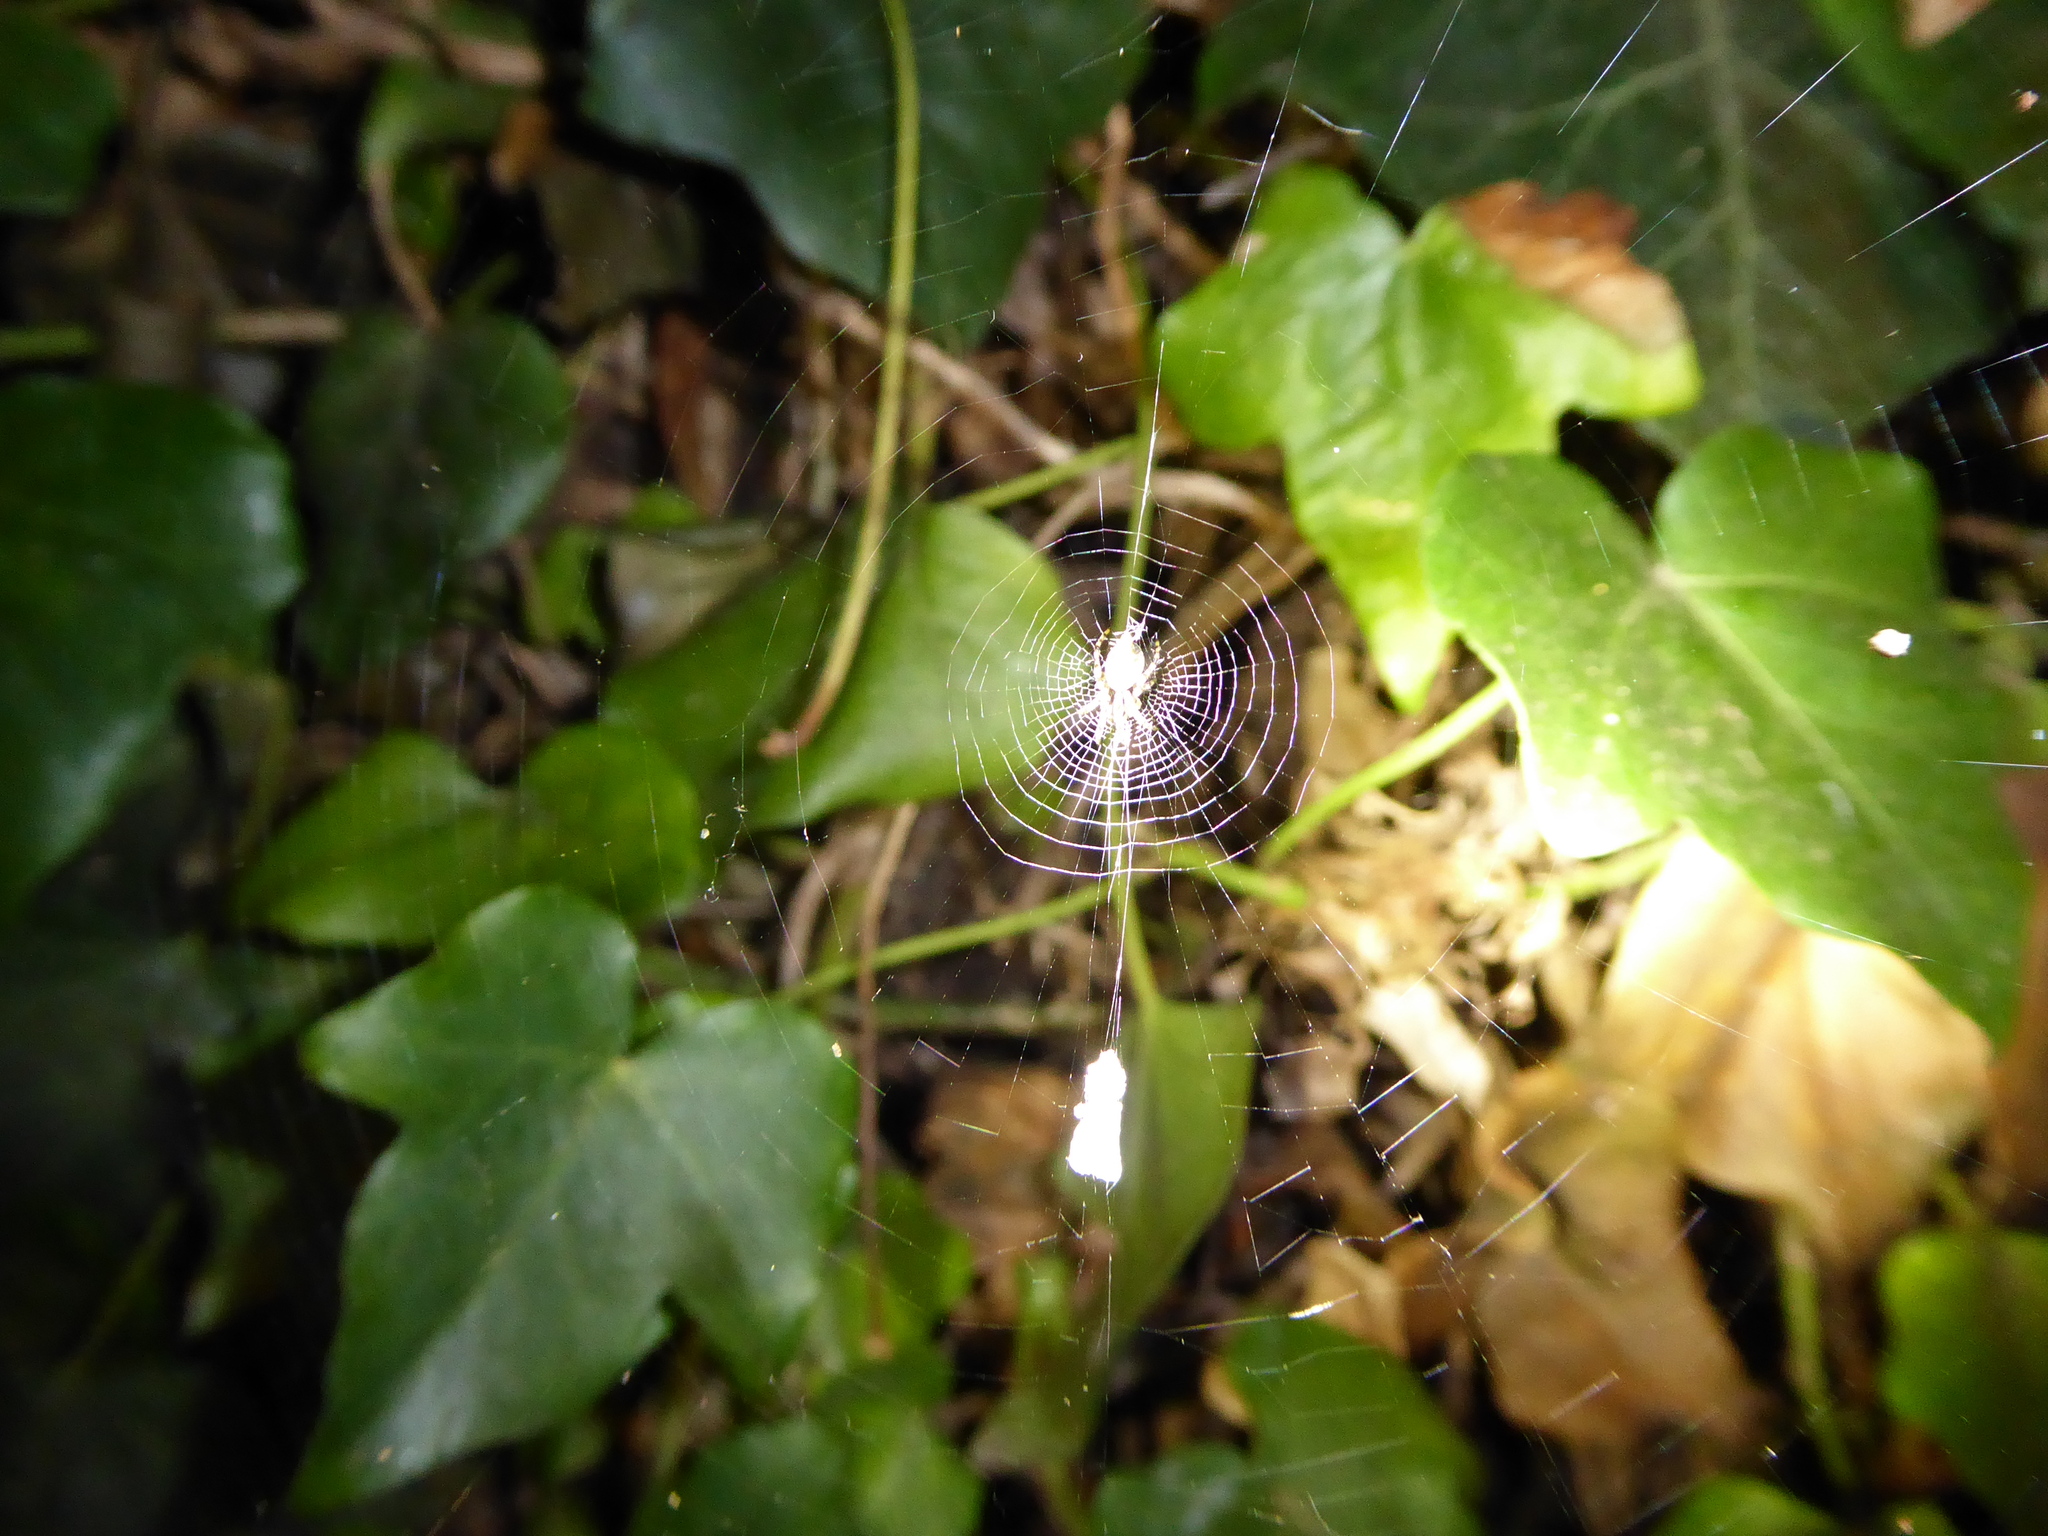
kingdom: Animalia
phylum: Arthropoda
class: Arachnida
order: Araneae
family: Araneidae
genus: Cyclosa
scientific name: Cyclosa conica
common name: Conical trashline orbweaver
